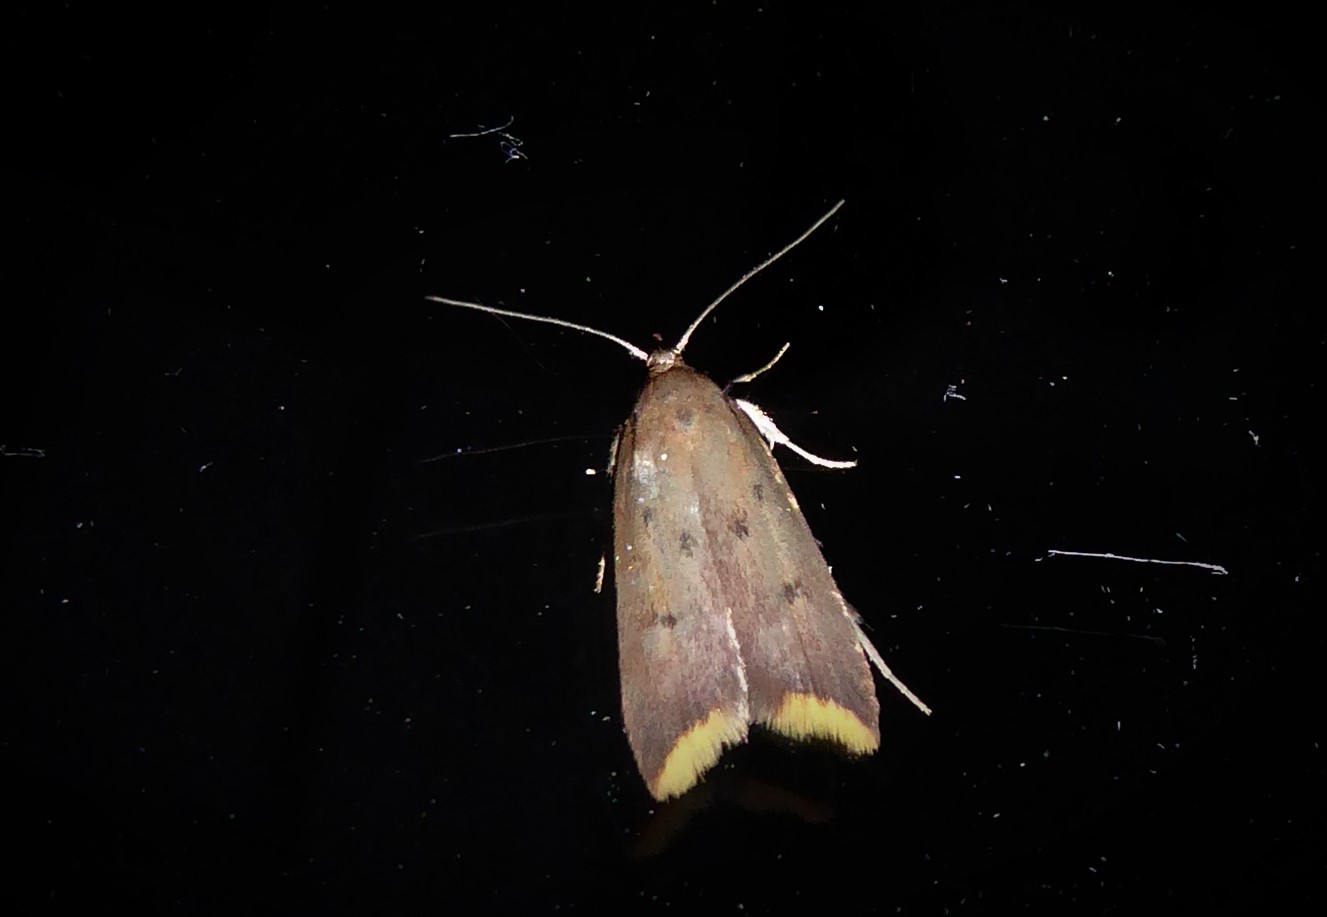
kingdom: Animalia
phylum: Arthropoda
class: Insecta
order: Lepidoptera
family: Oecophoridae
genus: Tachystola
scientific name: Tachystola acroxantha
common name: Ruddy streak
